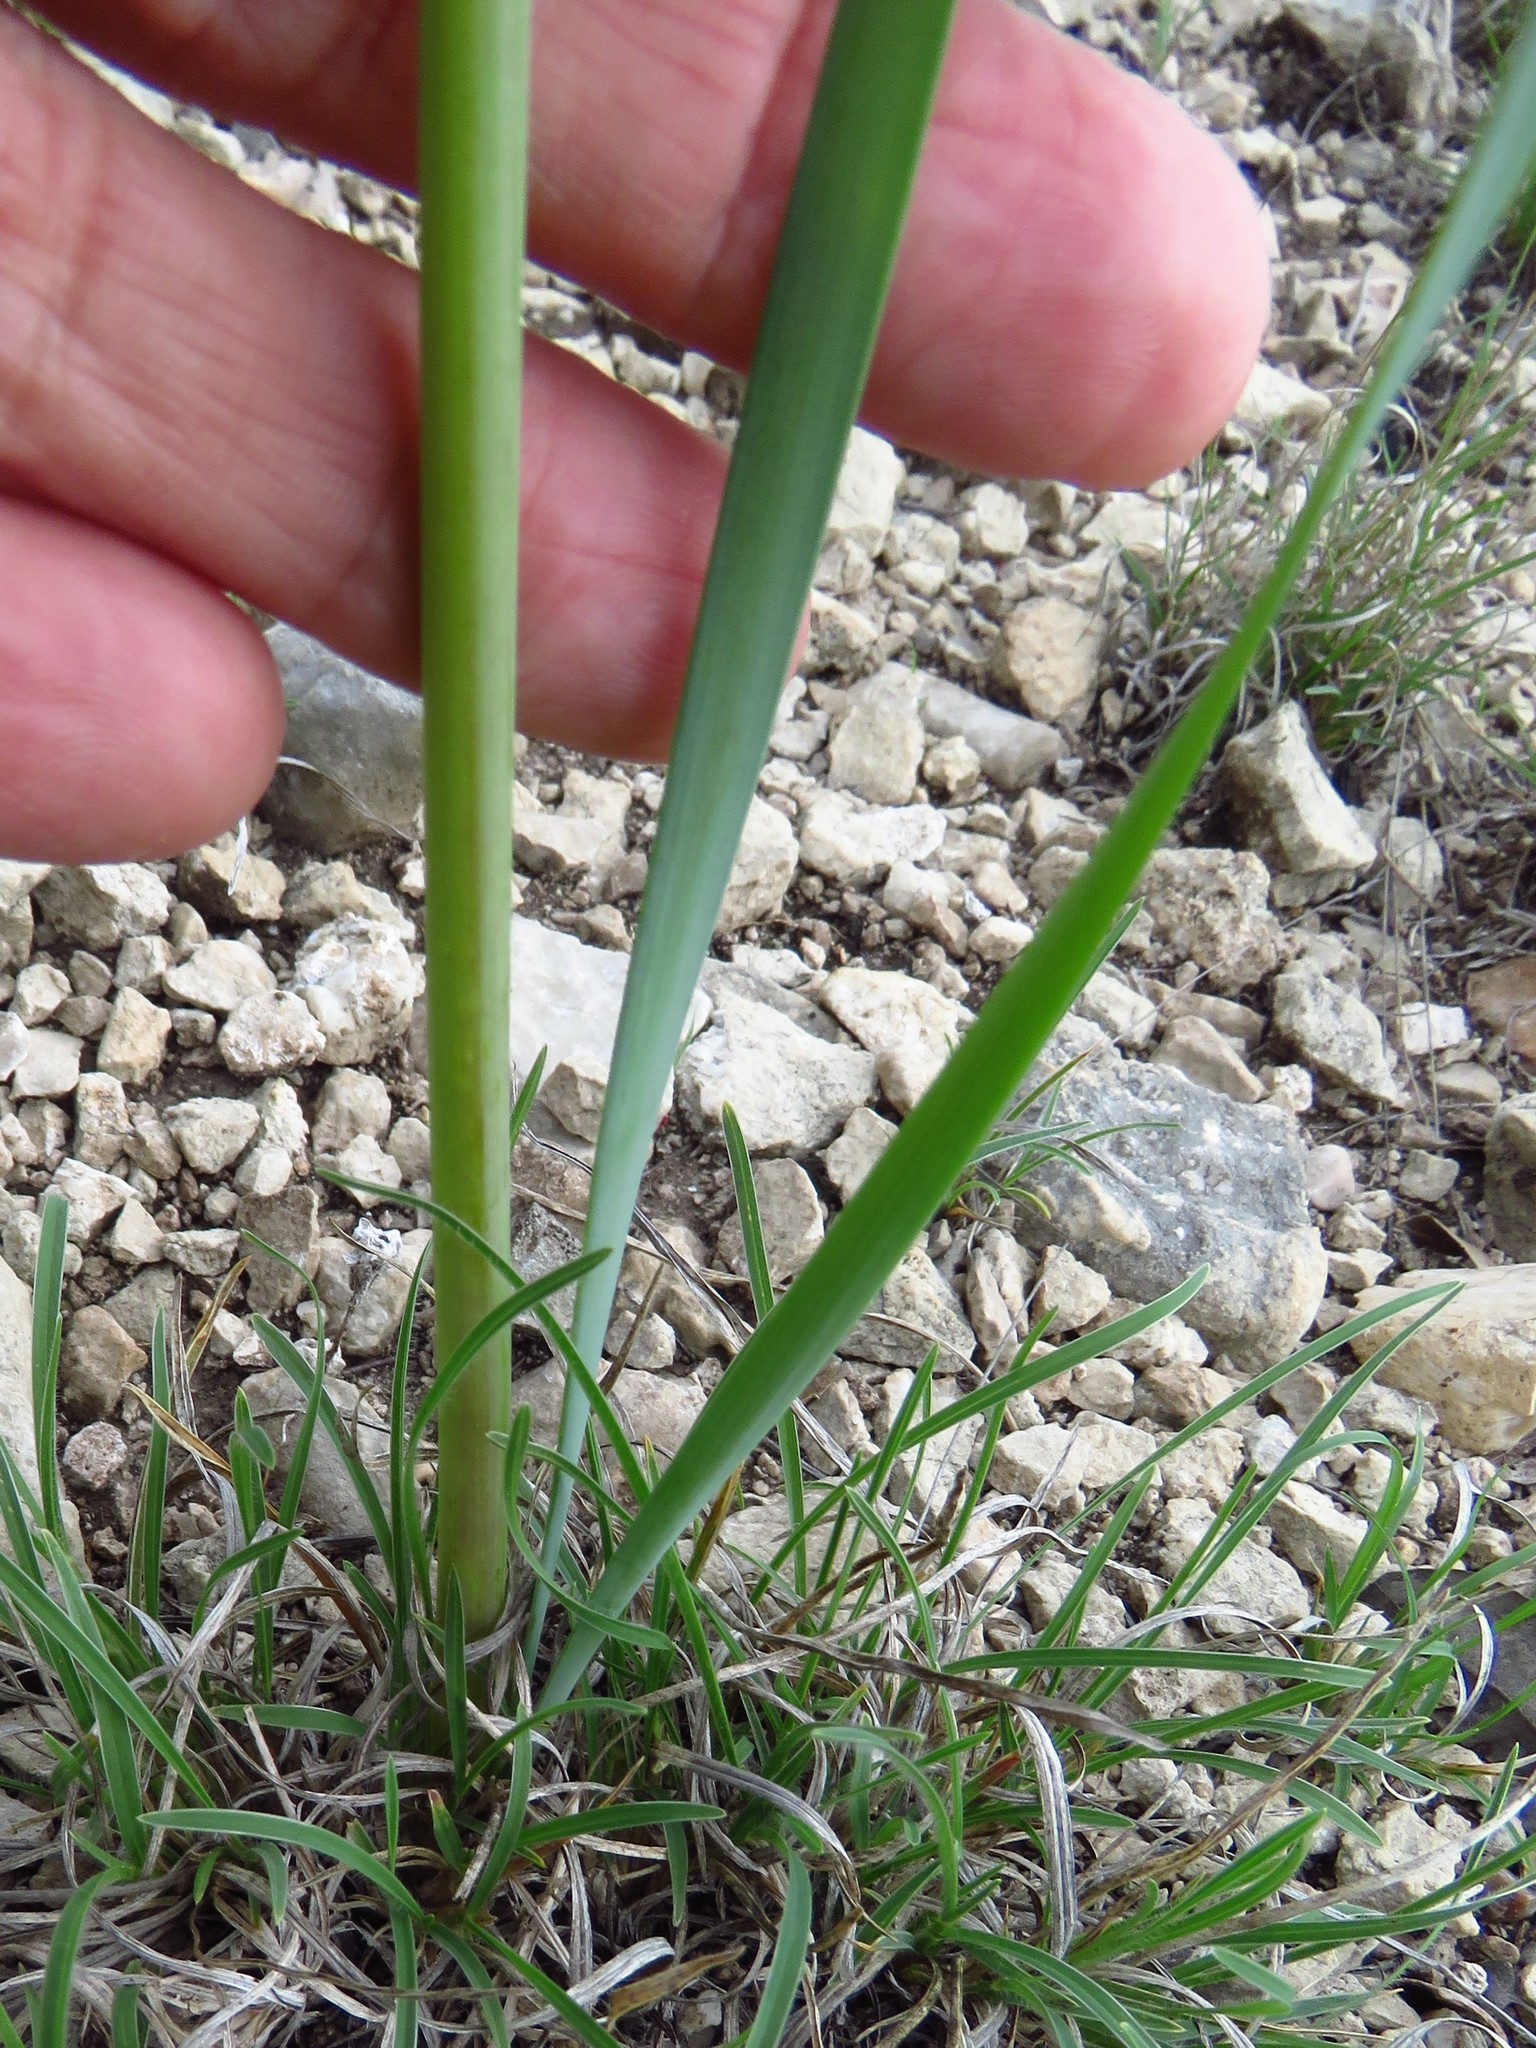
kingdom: Plantae
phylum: Tracheophyta
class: Liliopsida
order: Asparagales
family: Amaryllidaceae
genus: Zephyranthes
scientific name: Zephyranthes chlorosolen
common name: Evening rain-lily
